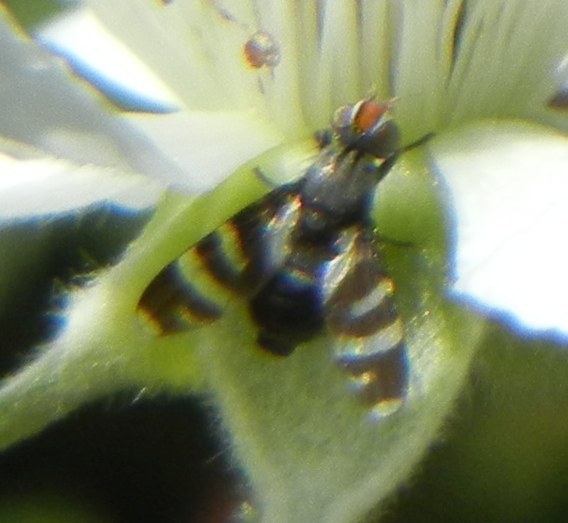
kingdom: Animalia
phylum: Arthropoda
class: Insecta
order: Diptera
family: Ulidiidae
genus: Herina
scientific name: Herina frondescentiae
